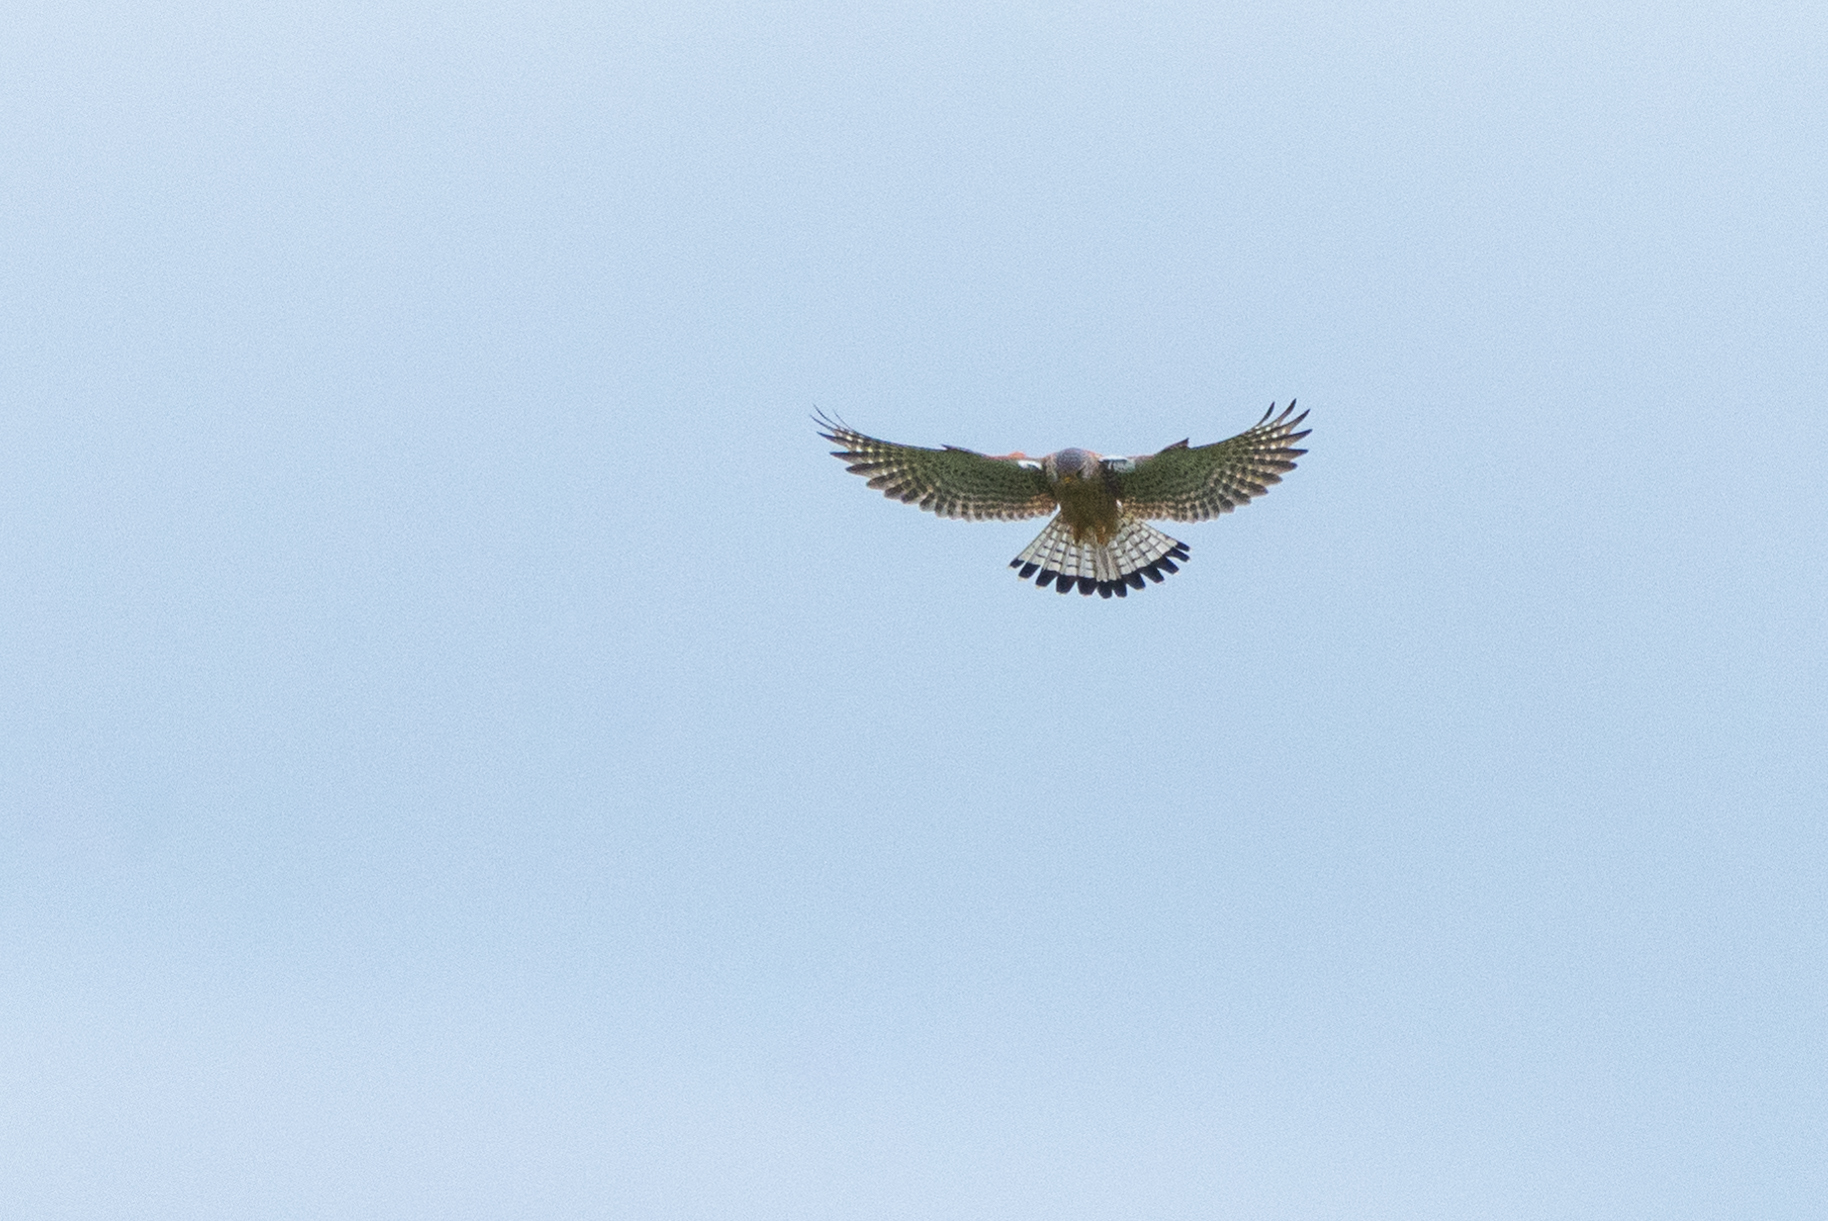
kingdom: Animalia
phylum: Chordata
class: Aves
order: Falconiformes
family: Falconidae
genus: Falco
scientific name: Falco tinnunculus
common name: Common kestrel
